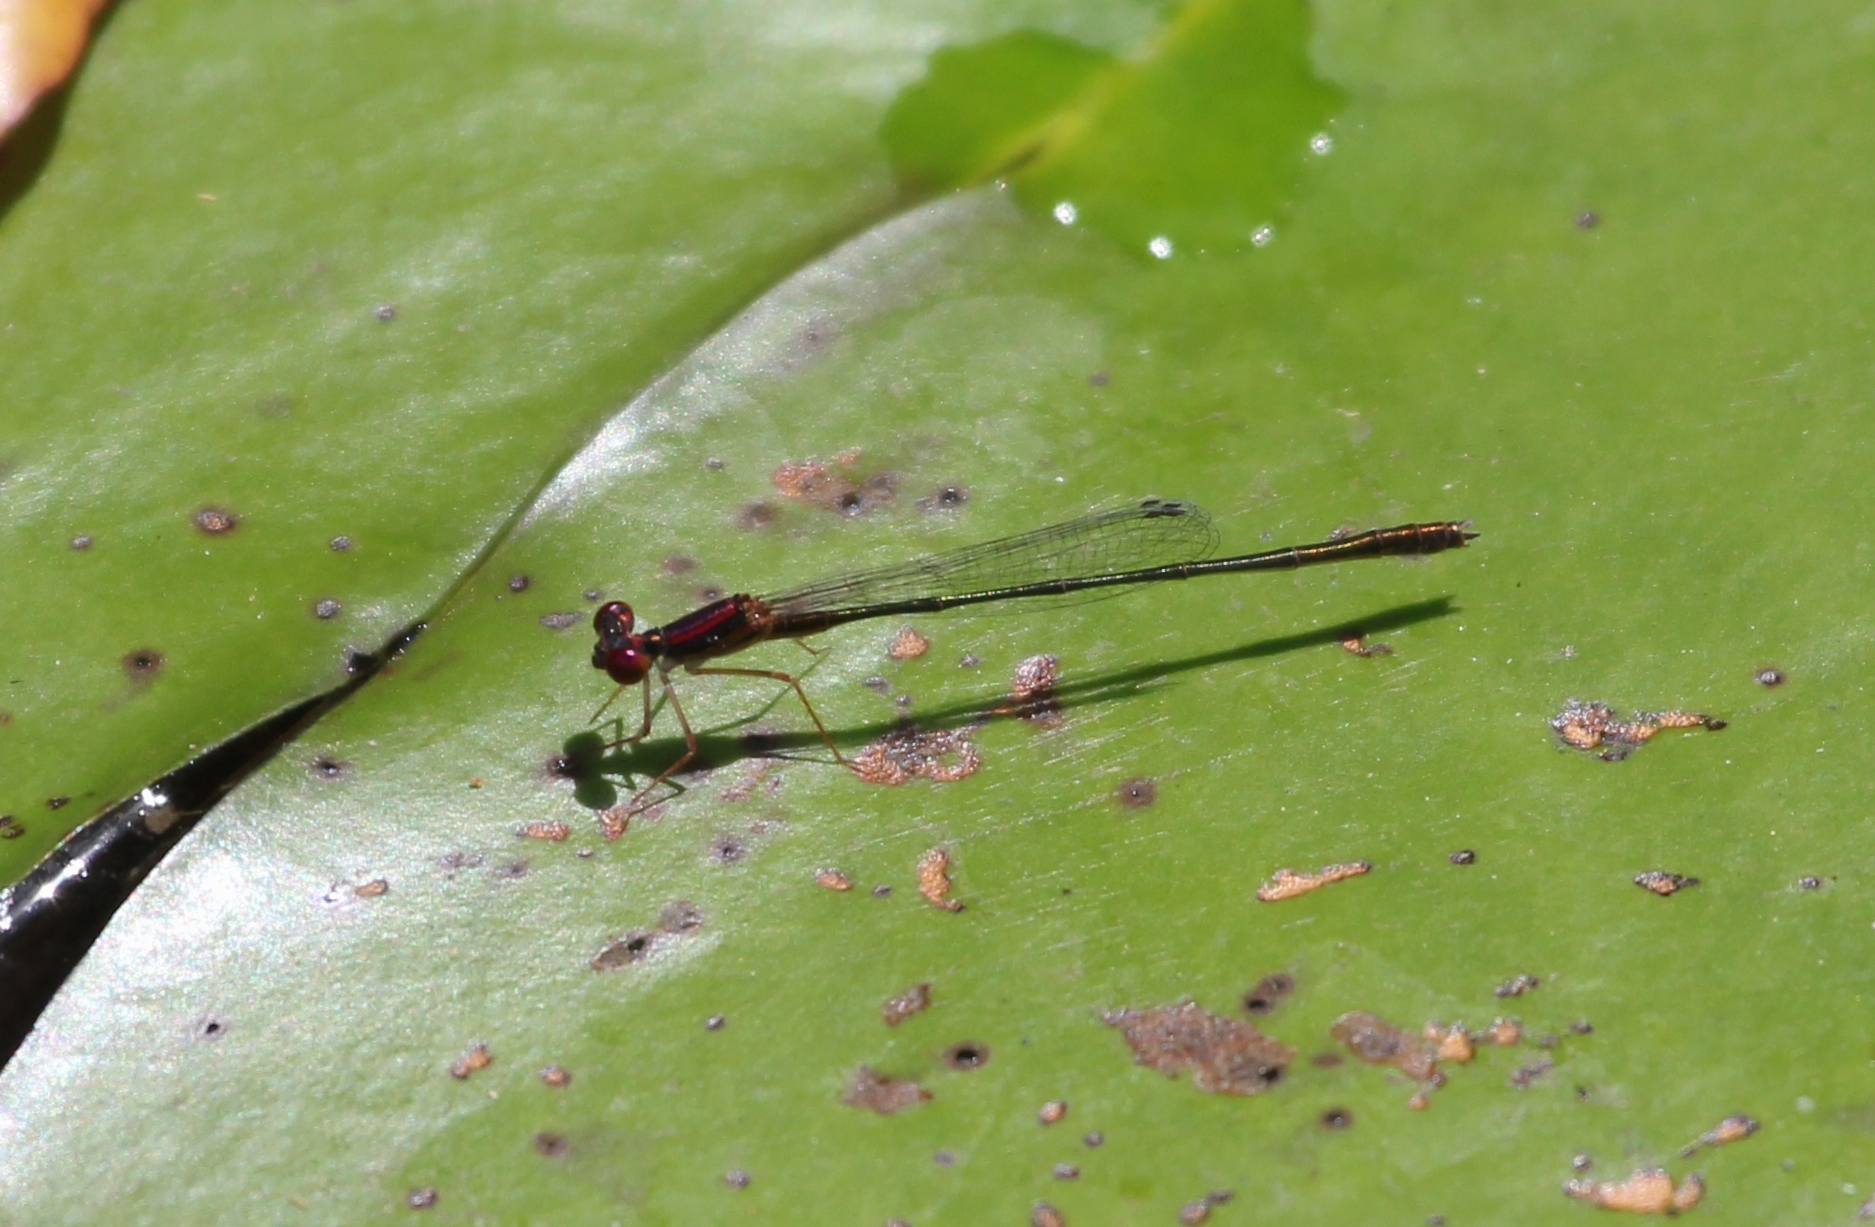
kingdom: Animalia
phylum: Arthropoda
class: Insecta
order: Odonata
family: Coenagrionidae
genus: Enallagma
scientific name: Enallagma dubium
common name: Burgundy bluet
